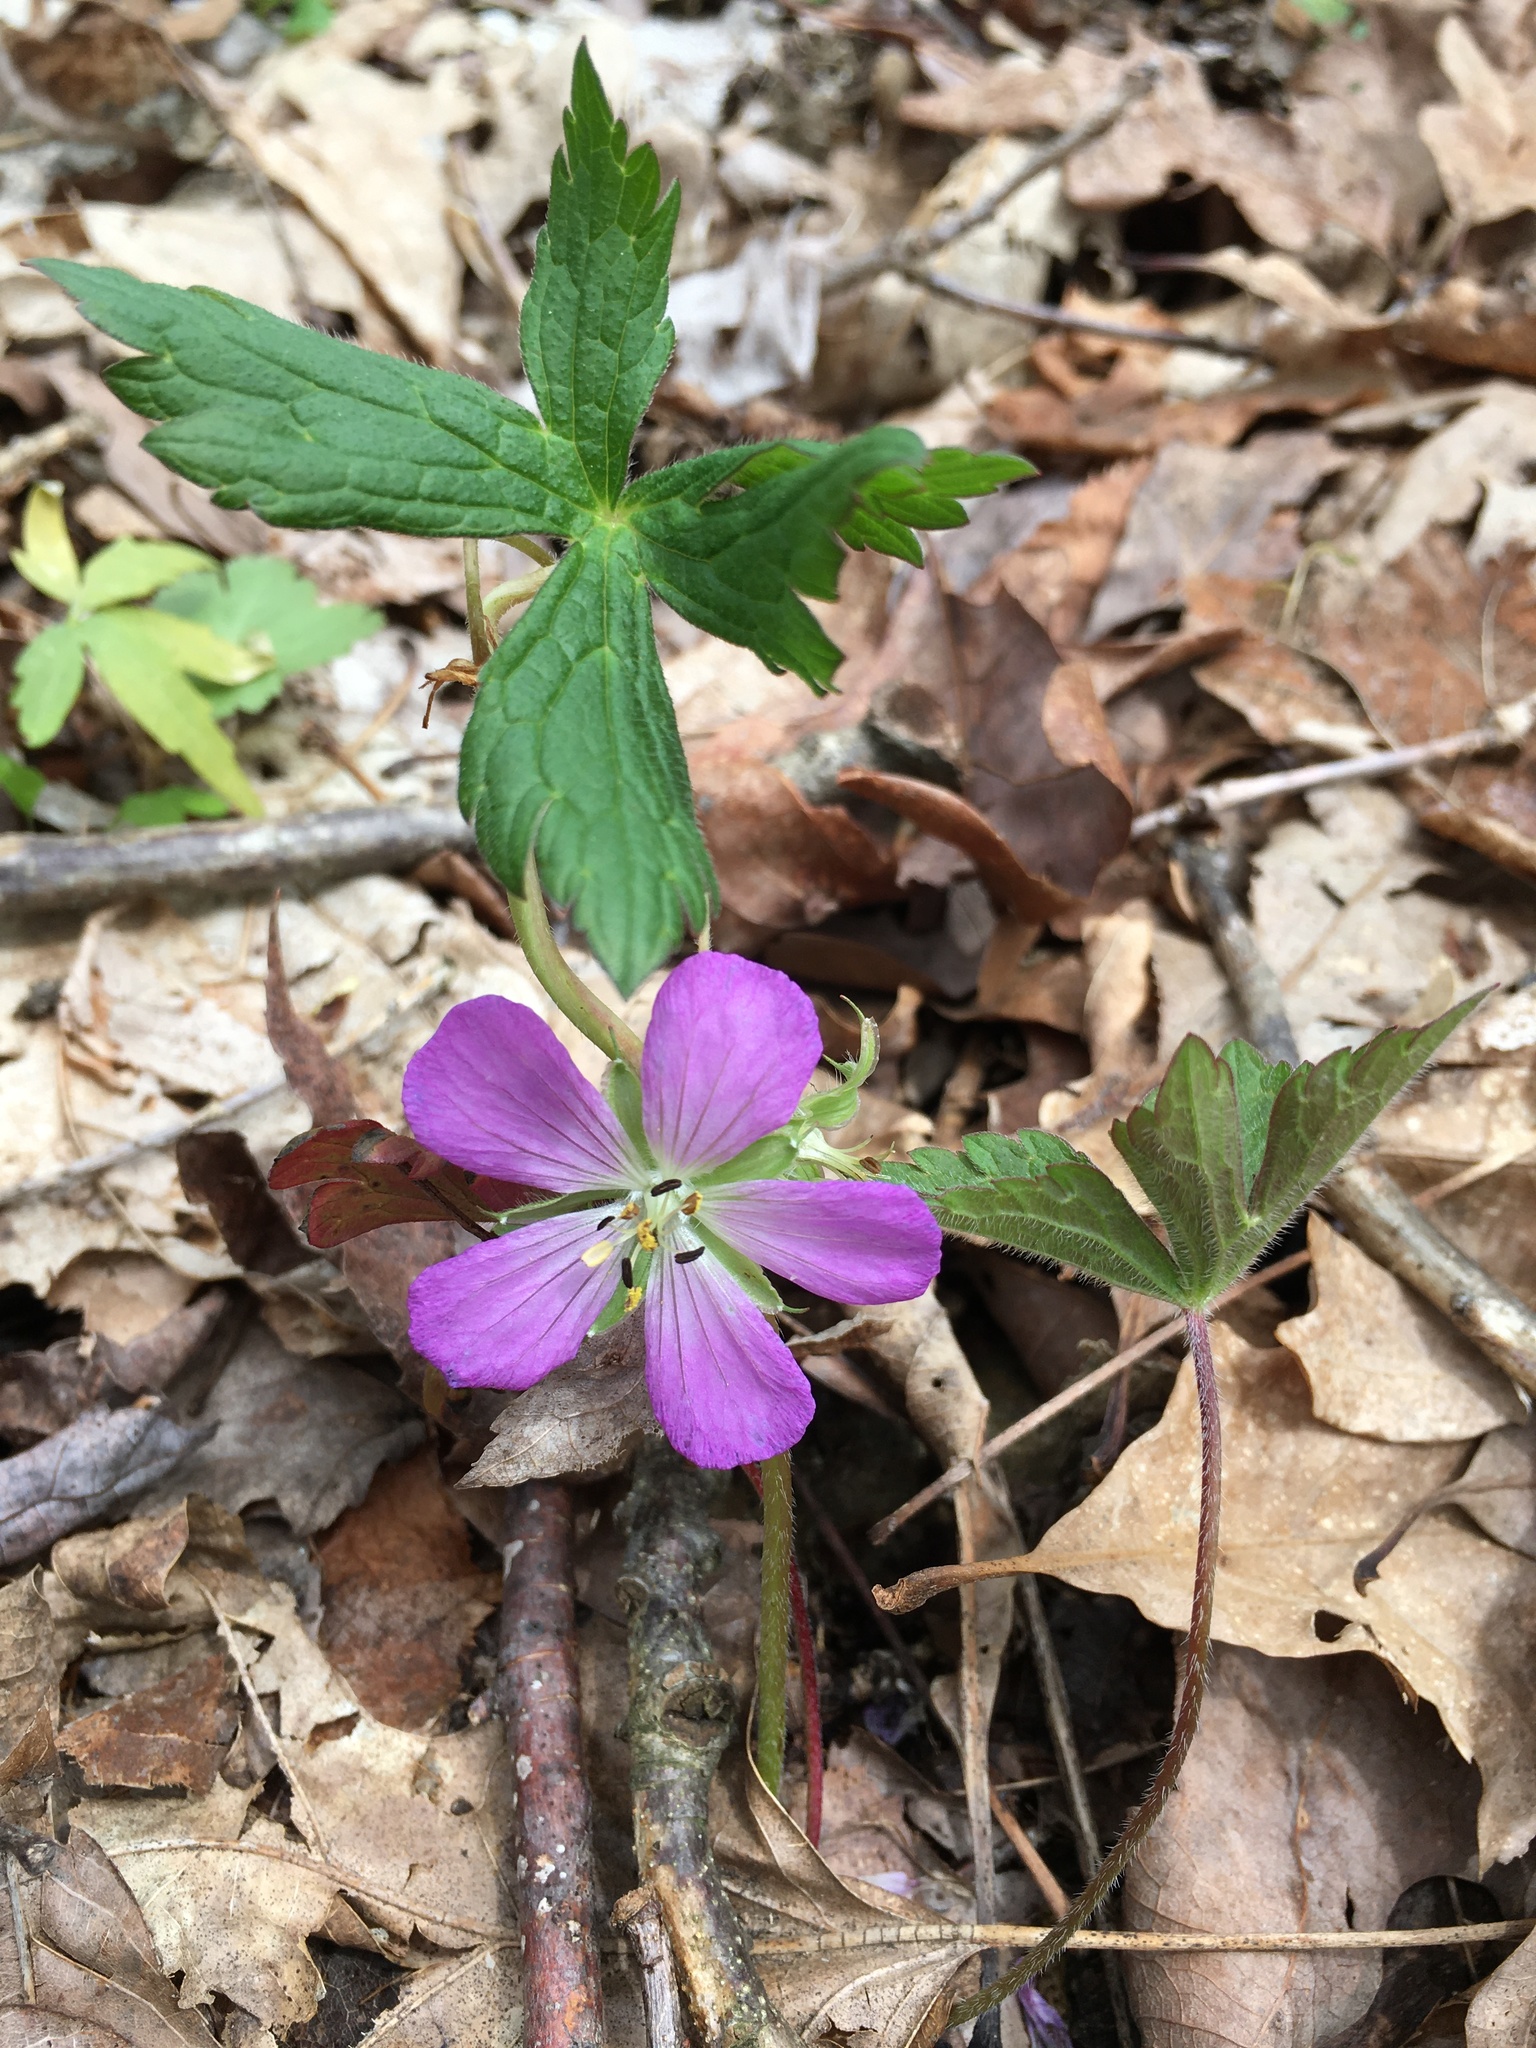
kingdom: Plantae
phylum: Tracheophyta
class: Magnoliopsida
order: Geraniales
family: Geraniaceae
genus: Geranium
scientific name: Geranium maculatum
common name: Spotted geranium
